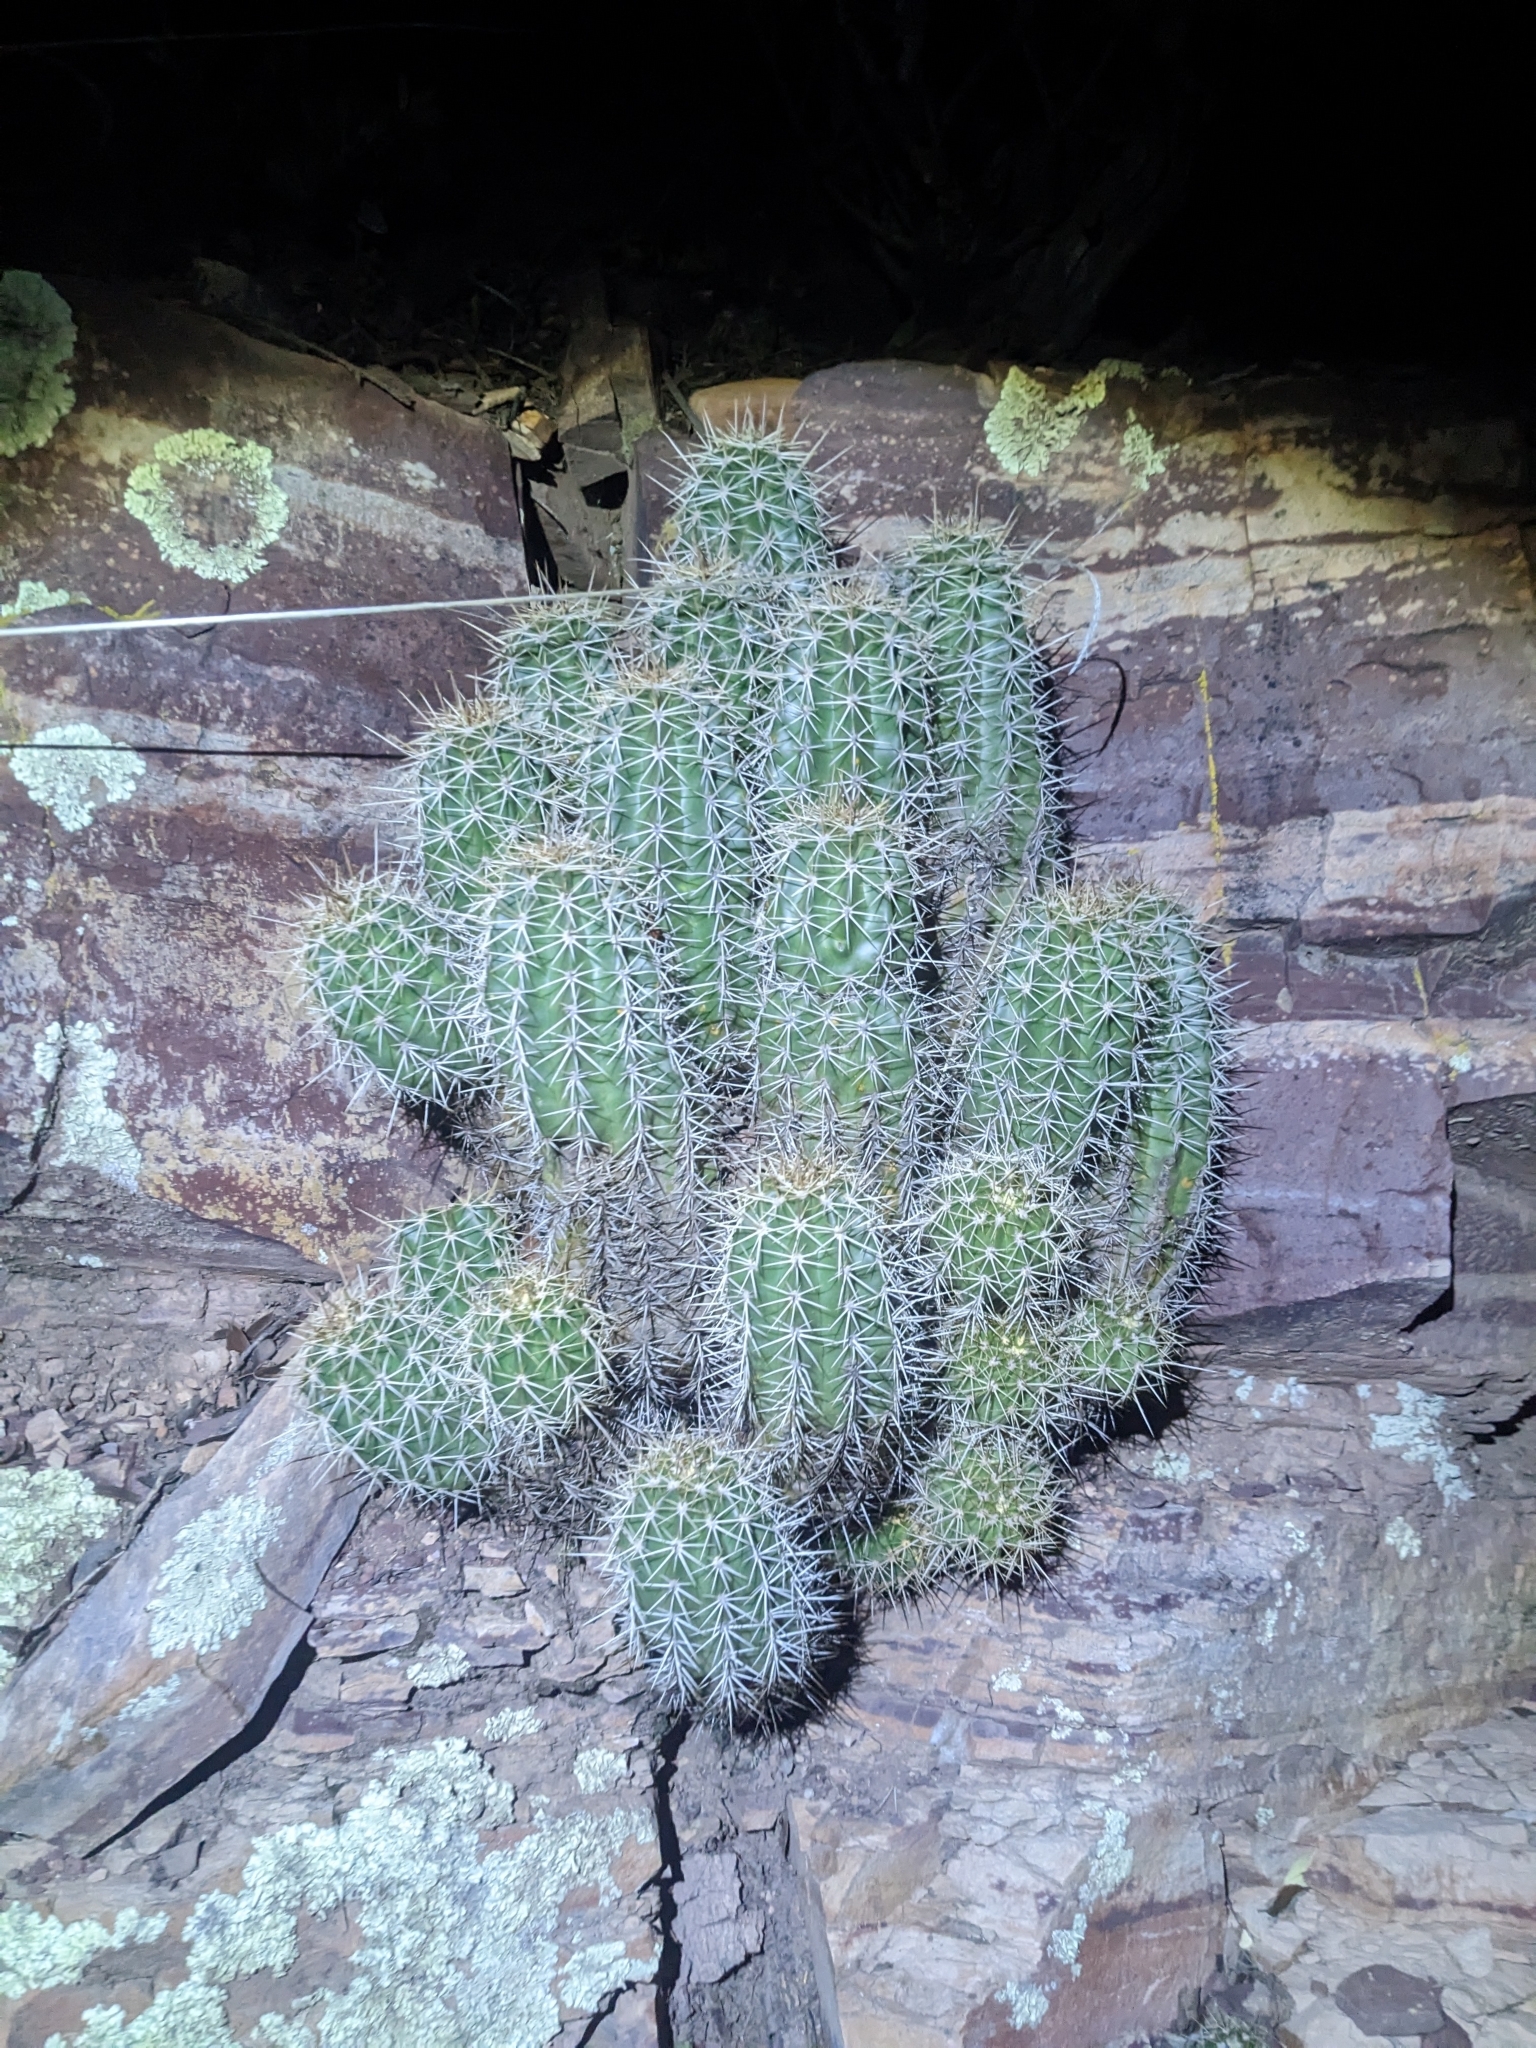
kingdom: Plantae
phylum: Tracheophyta
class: Magnoliopsida
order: Caryophyllales
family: Cactaceae
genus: Echinocereus
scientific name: Echinocereus coccineus
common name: Scarlet hedgehog cactus
